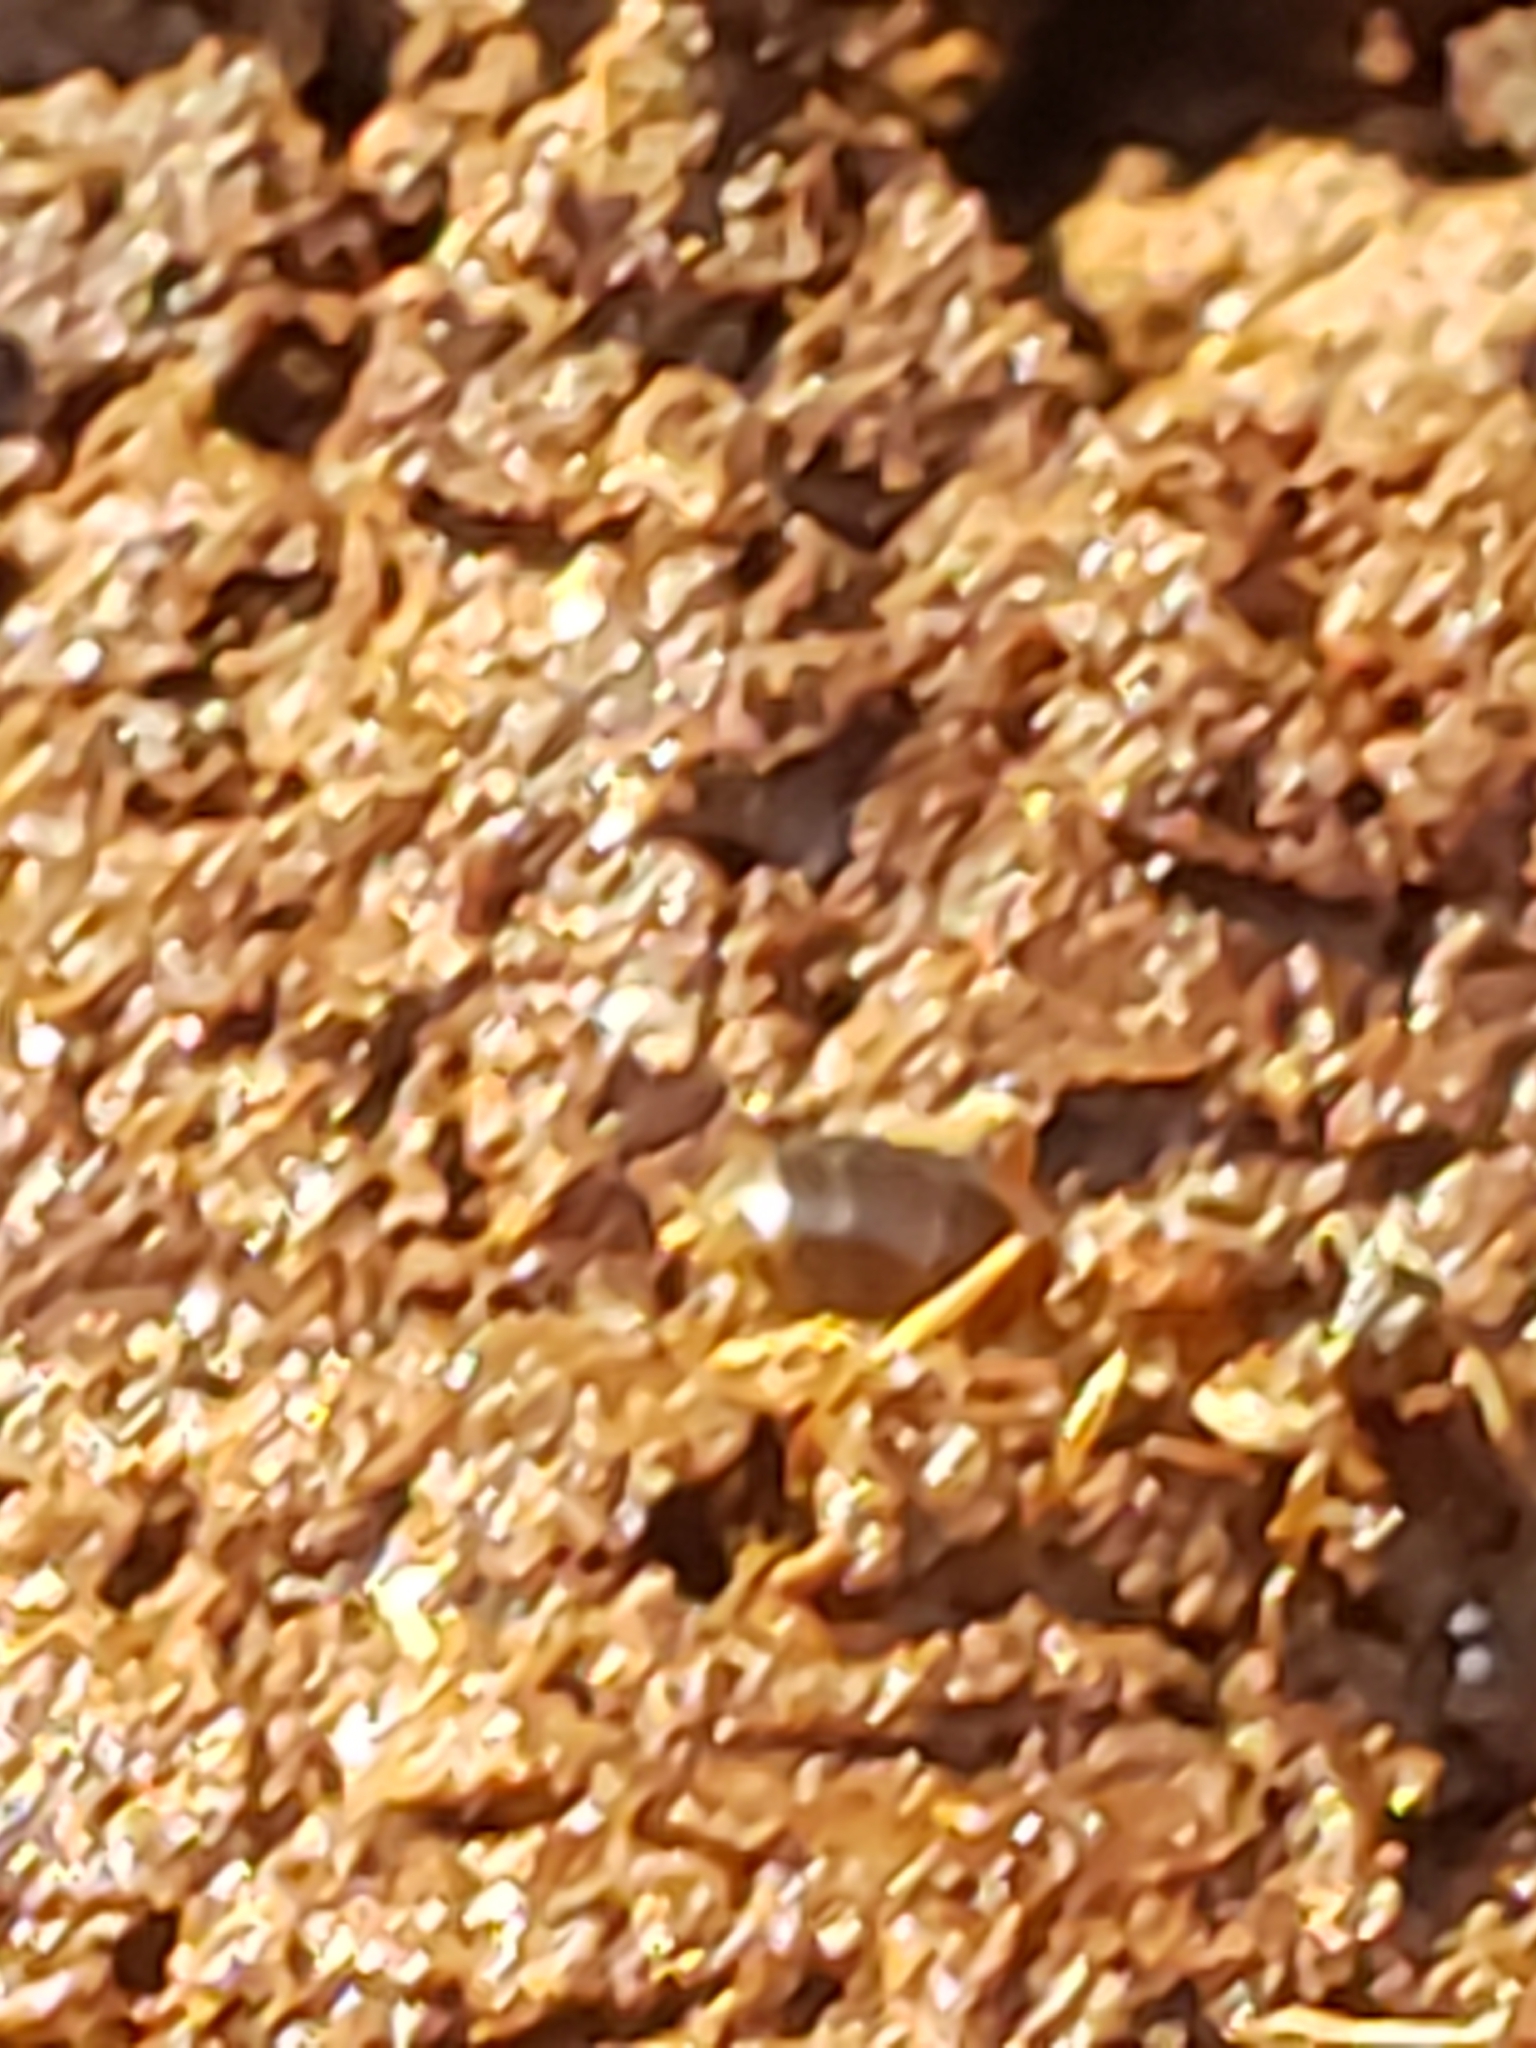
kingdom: Animalia
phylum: Arthropoda
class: Insecta
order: Hymenoptera
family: Formicidae
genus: Lasius
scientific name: Lasius aphidicola
